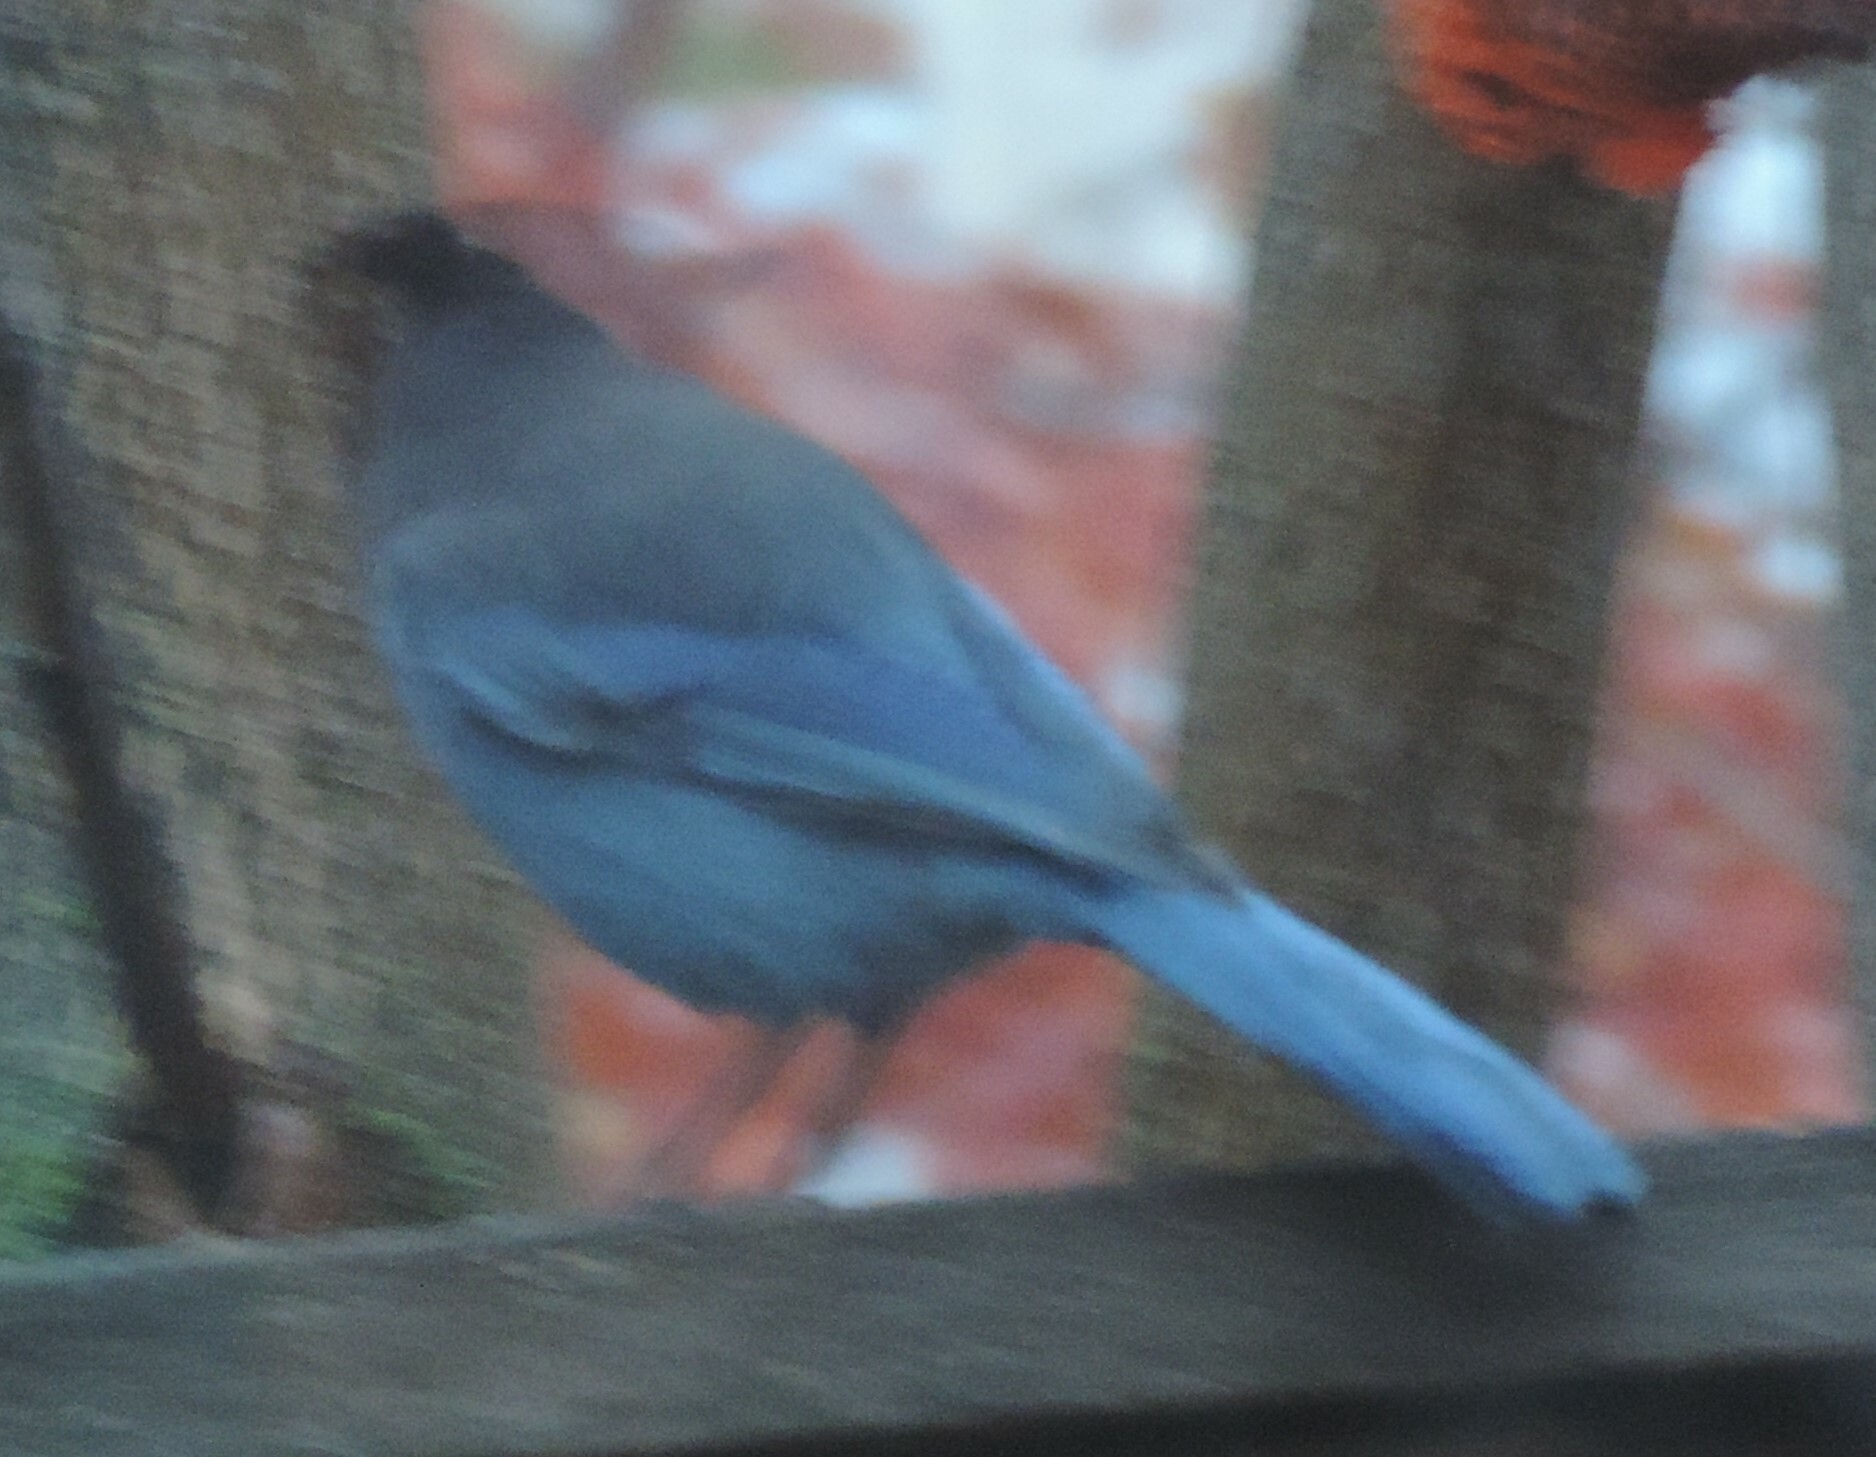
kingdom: Animalia
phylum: Chordata
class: Aves
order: Passeriformes
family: Corvidae
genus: Cyanocitta
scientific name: Cyanocitta stelleri
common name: Steller's jay
